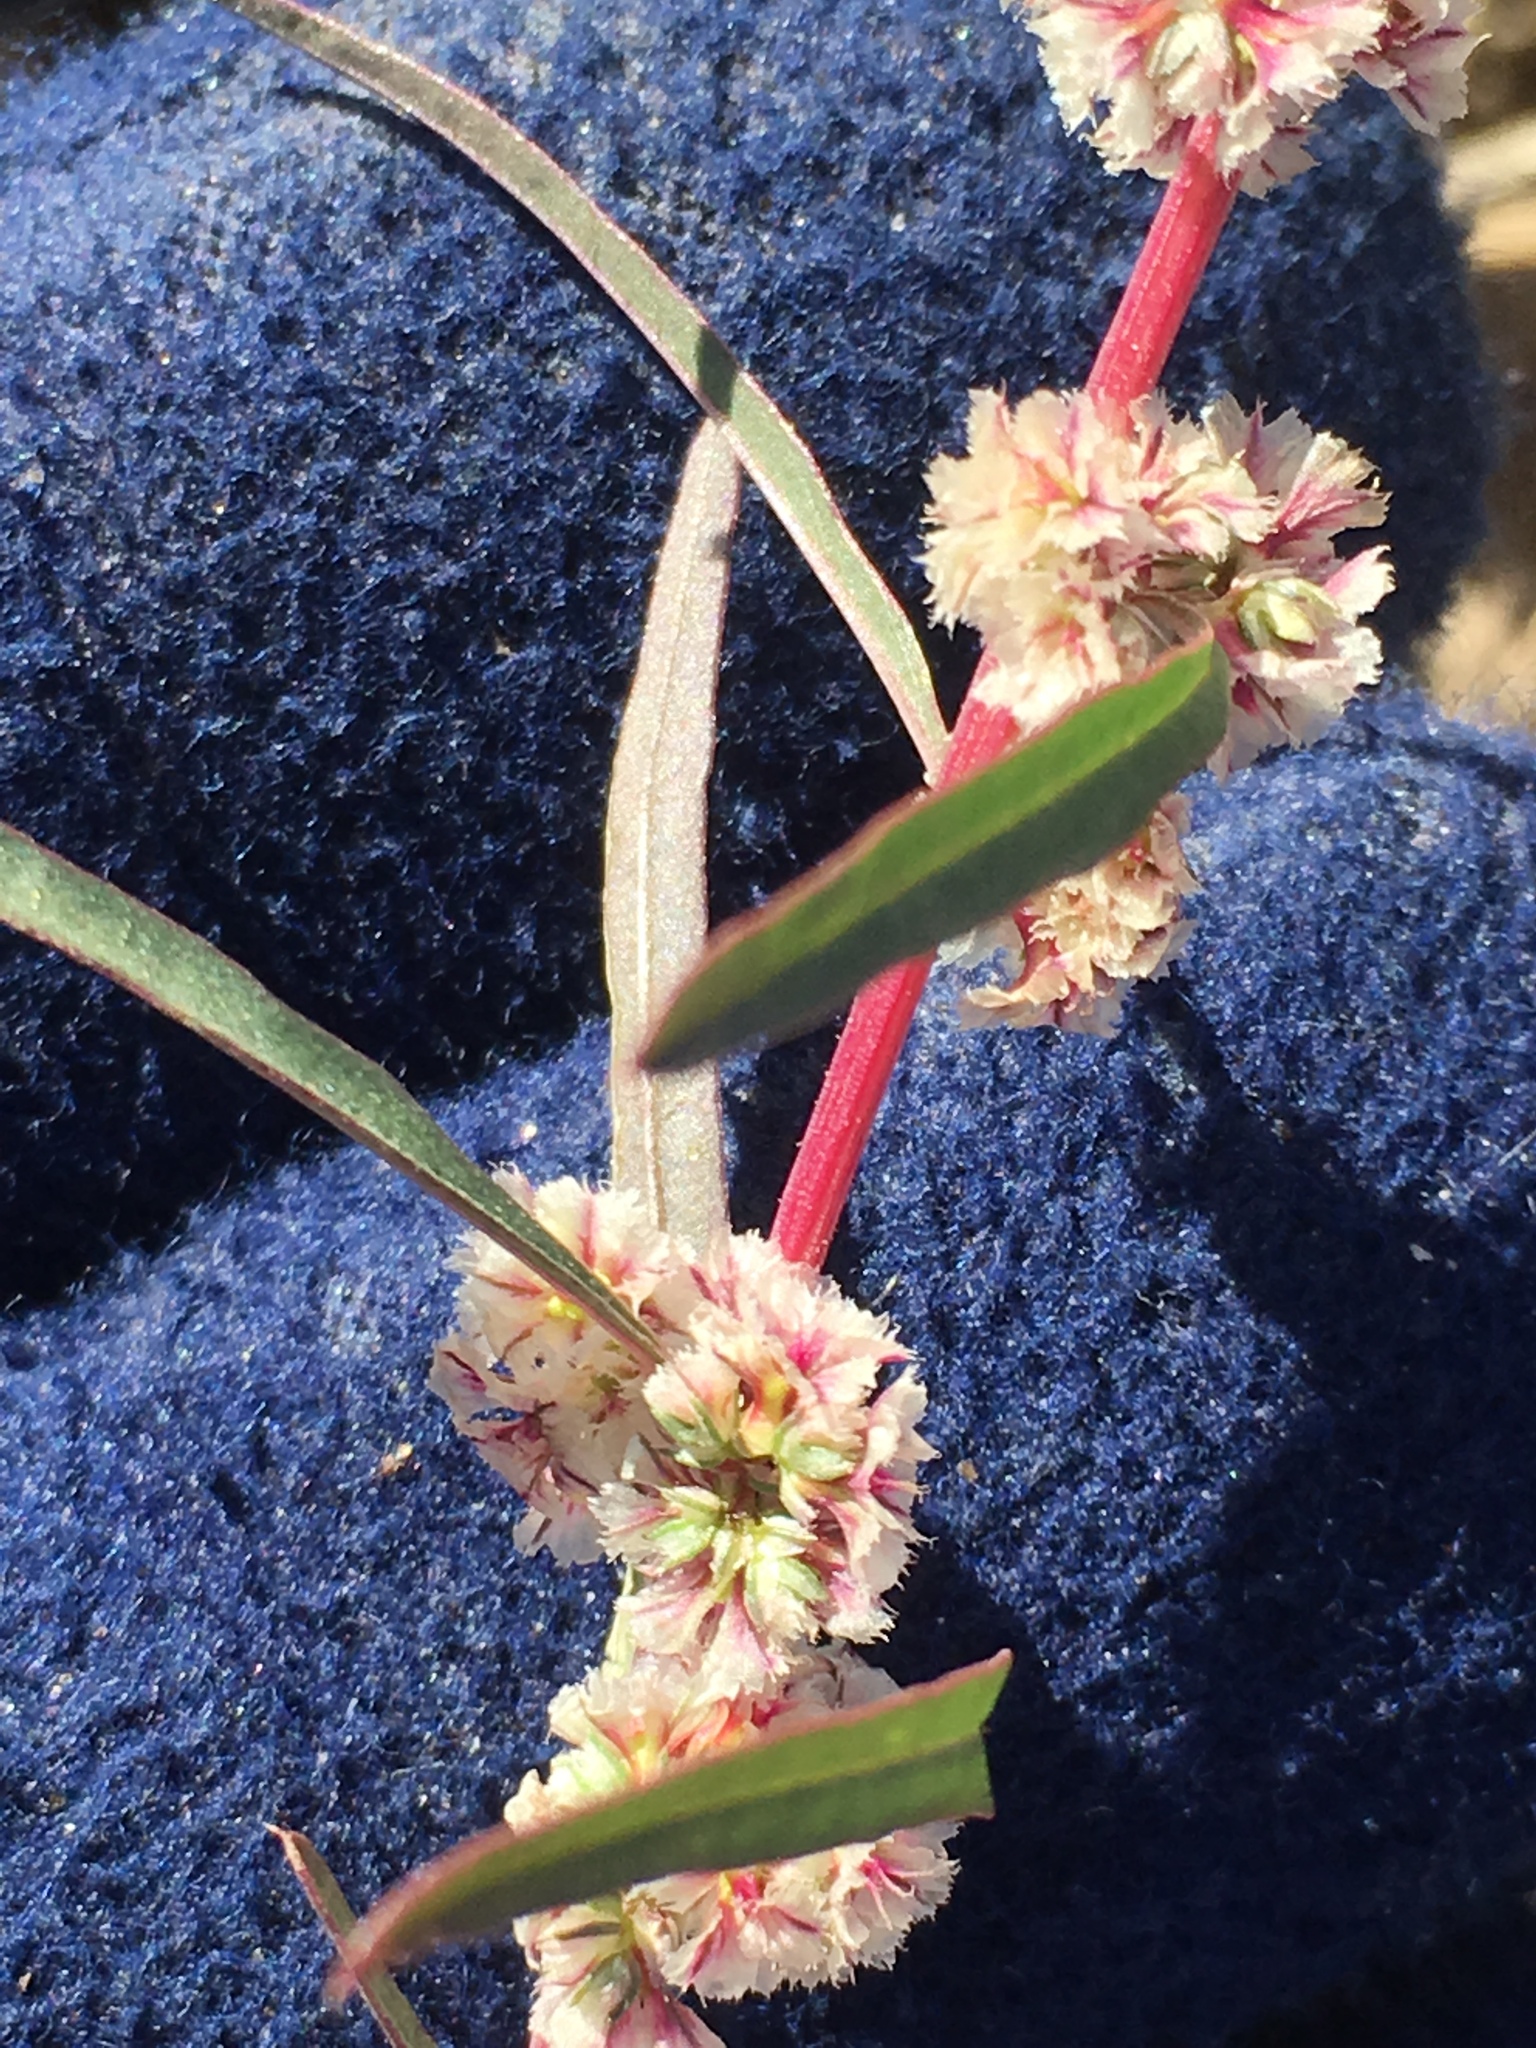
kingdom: Plantae
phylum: Tracheophyta
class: Magnoliopsida
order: Caryophyllales
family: Amaranthaceae
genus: Amaranthus
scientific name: Amaranthus fimbriatus
